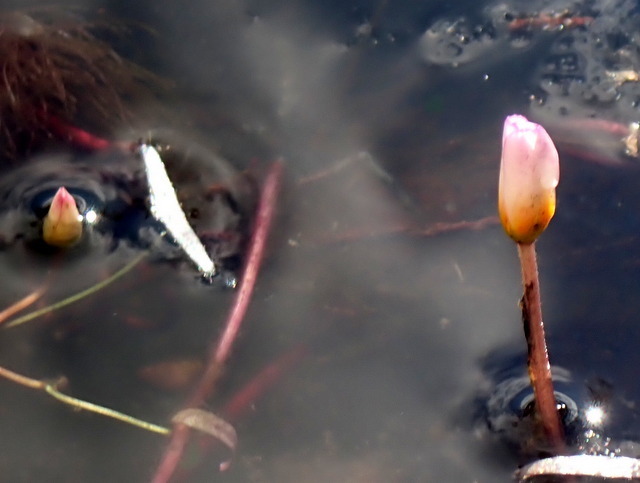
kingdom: Plantae
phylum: Tracheophyta
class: Magnoliopsida
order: Nymphaeales
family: Cabombaceae
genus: Cabomba
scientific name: Cabomba caroliniana
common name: Fanwort
